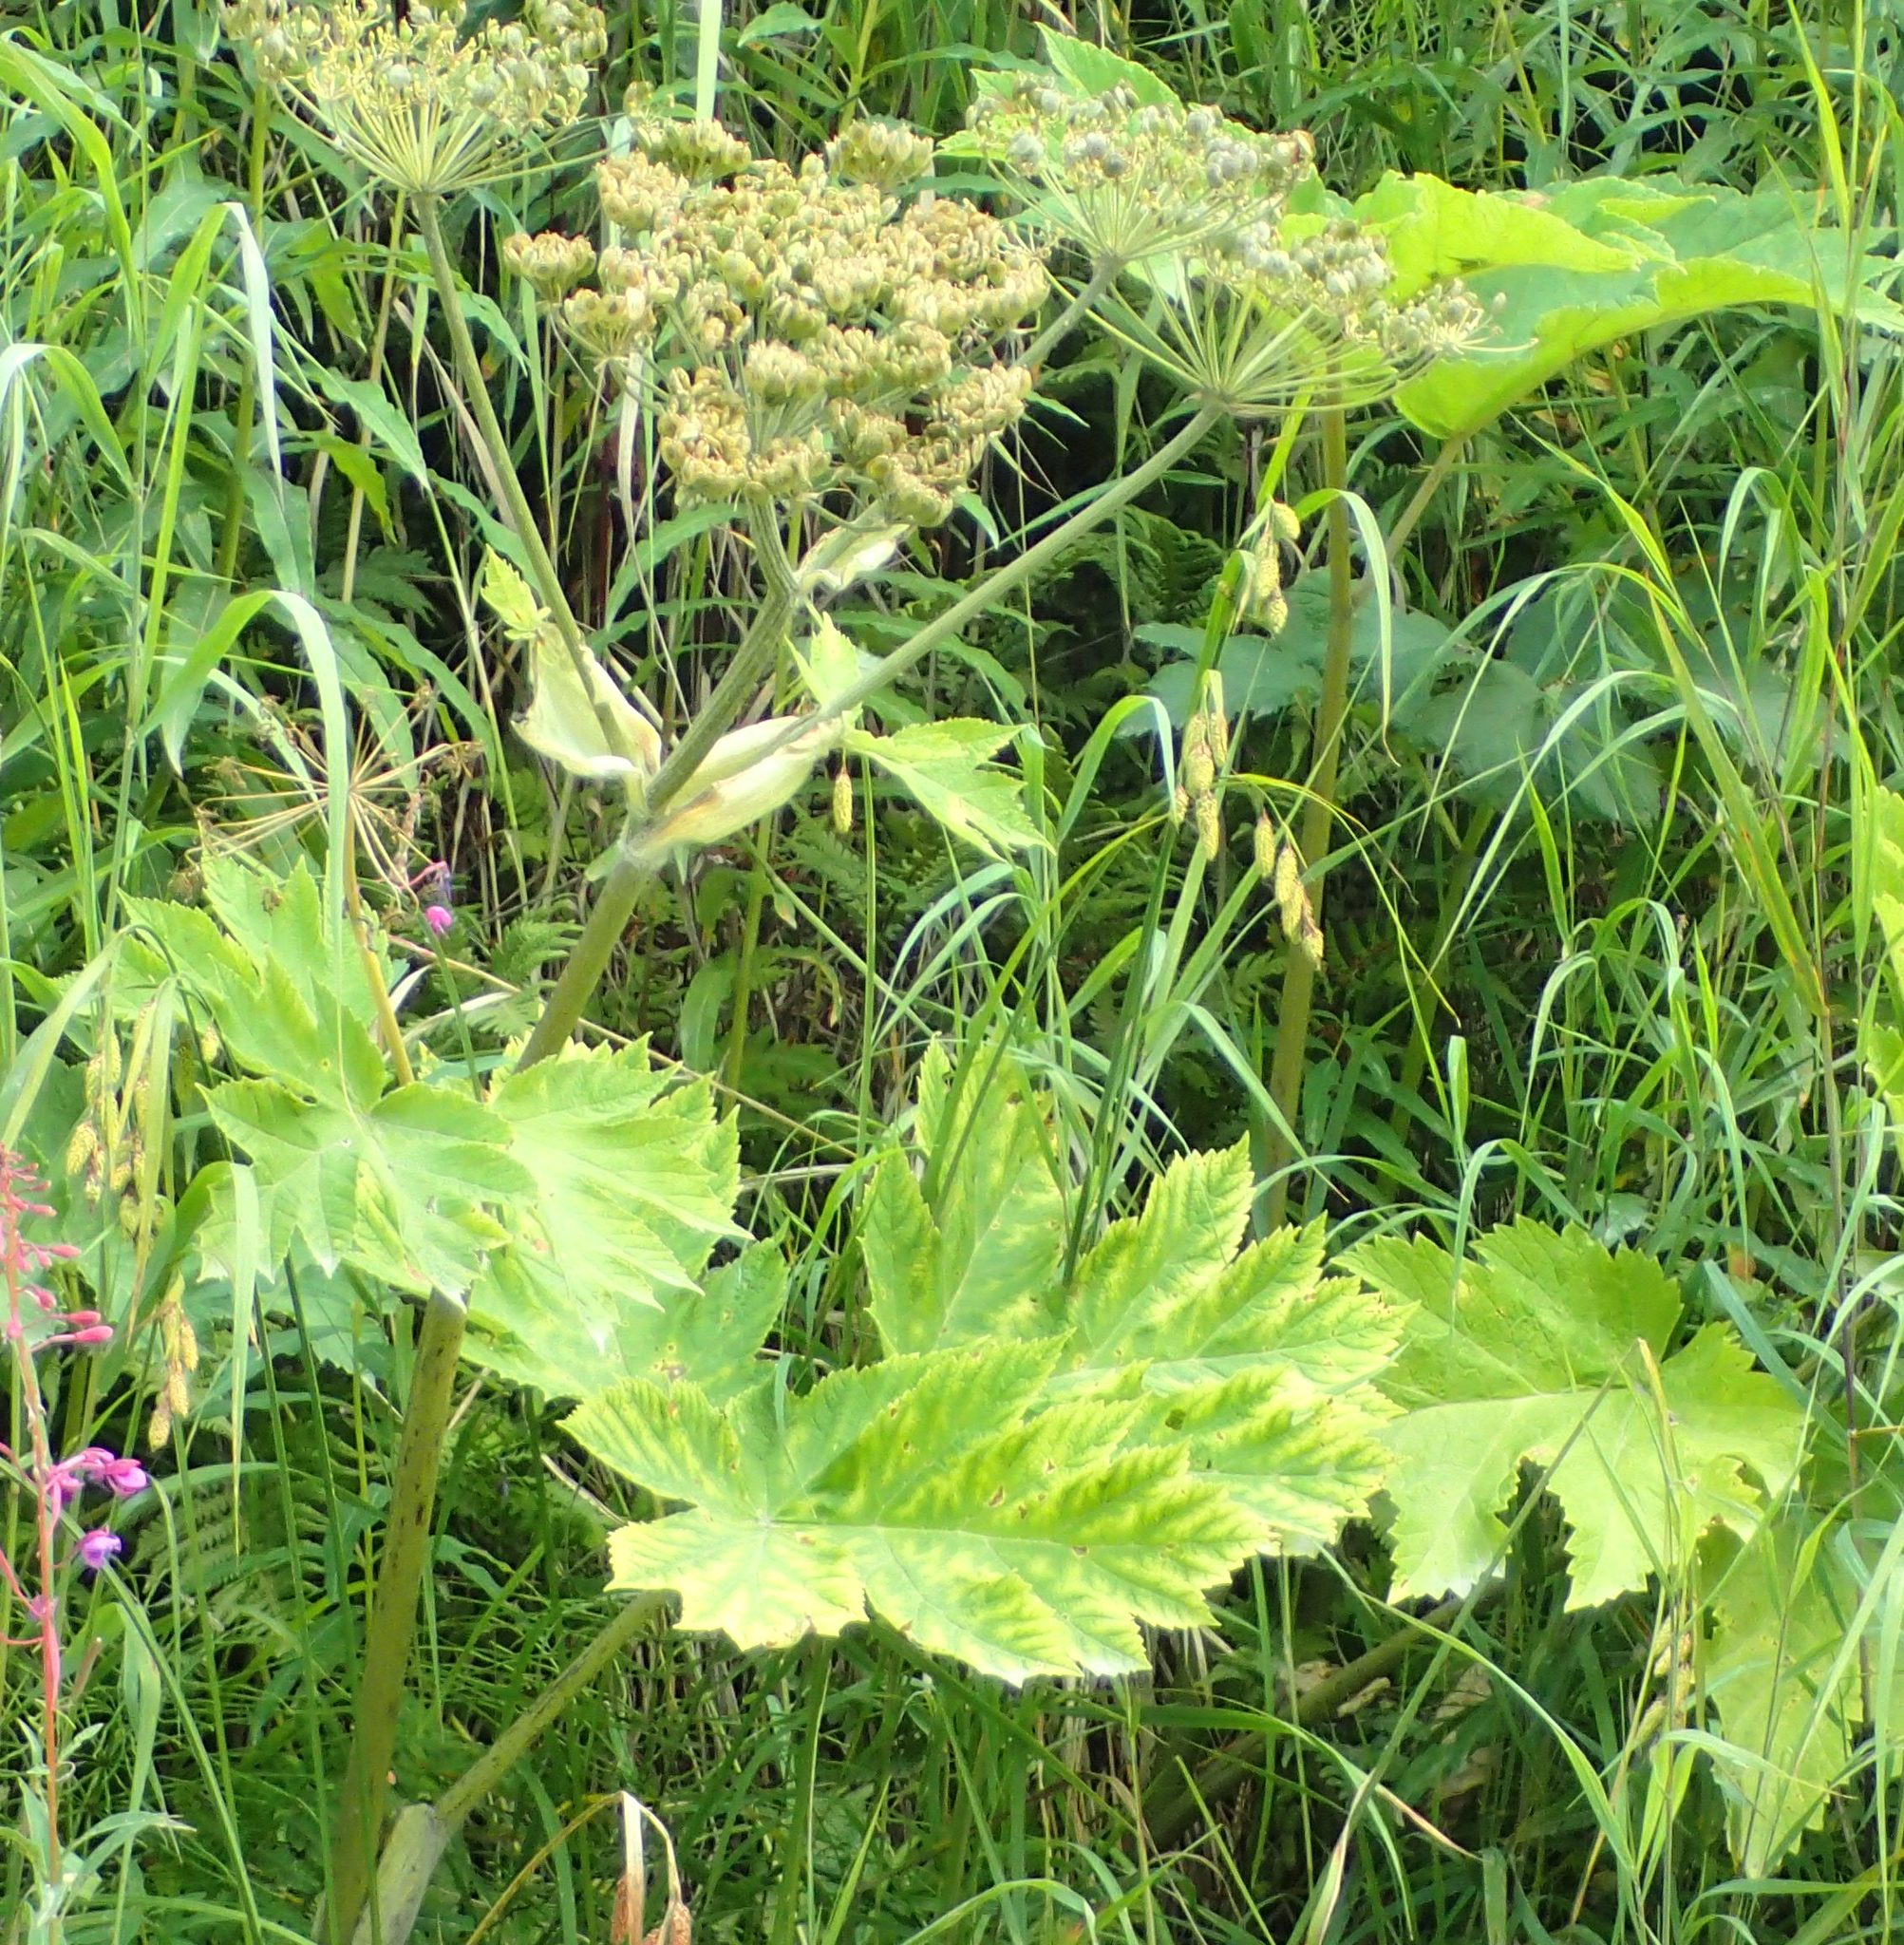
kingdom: Plantae
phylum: Tracheophyta
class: Magnoliopsida
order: Apiales
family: Apiaceae
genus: Heracleum
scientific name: Heracleum maximum
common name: American cow parsnip
